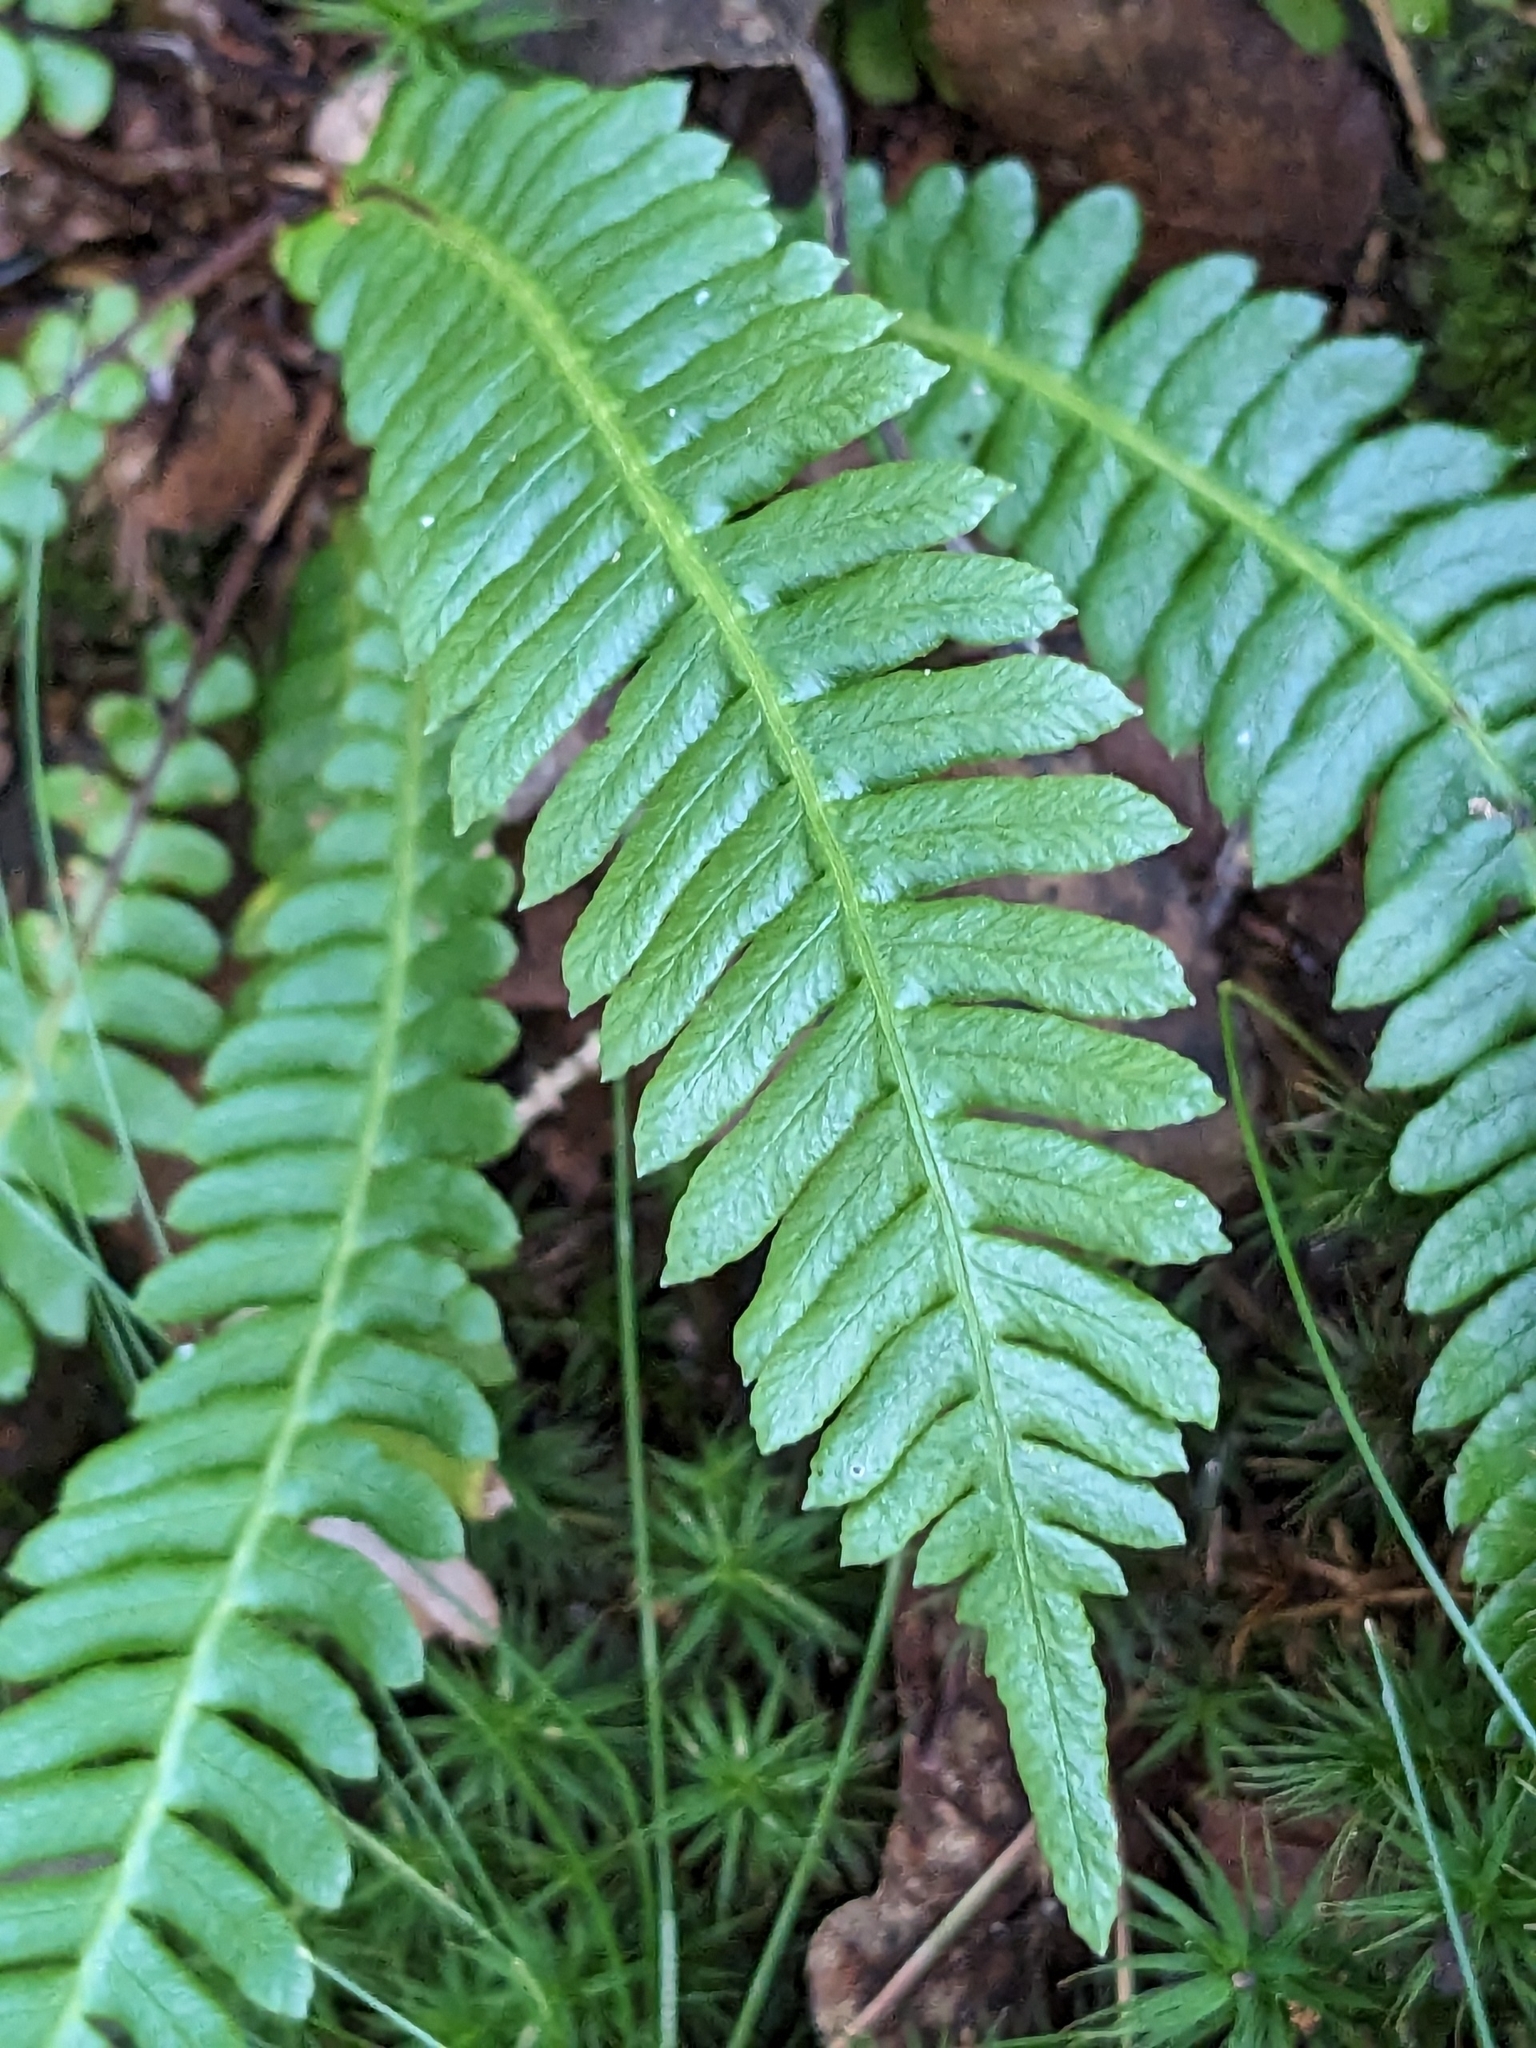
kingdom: Plantae
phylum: Tracheophyta
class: Polypodiopsida
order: Polypodiales
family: Blechnaceae
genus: Struthiopteris
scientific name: Struthiopteris spicant
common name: Deer fern
